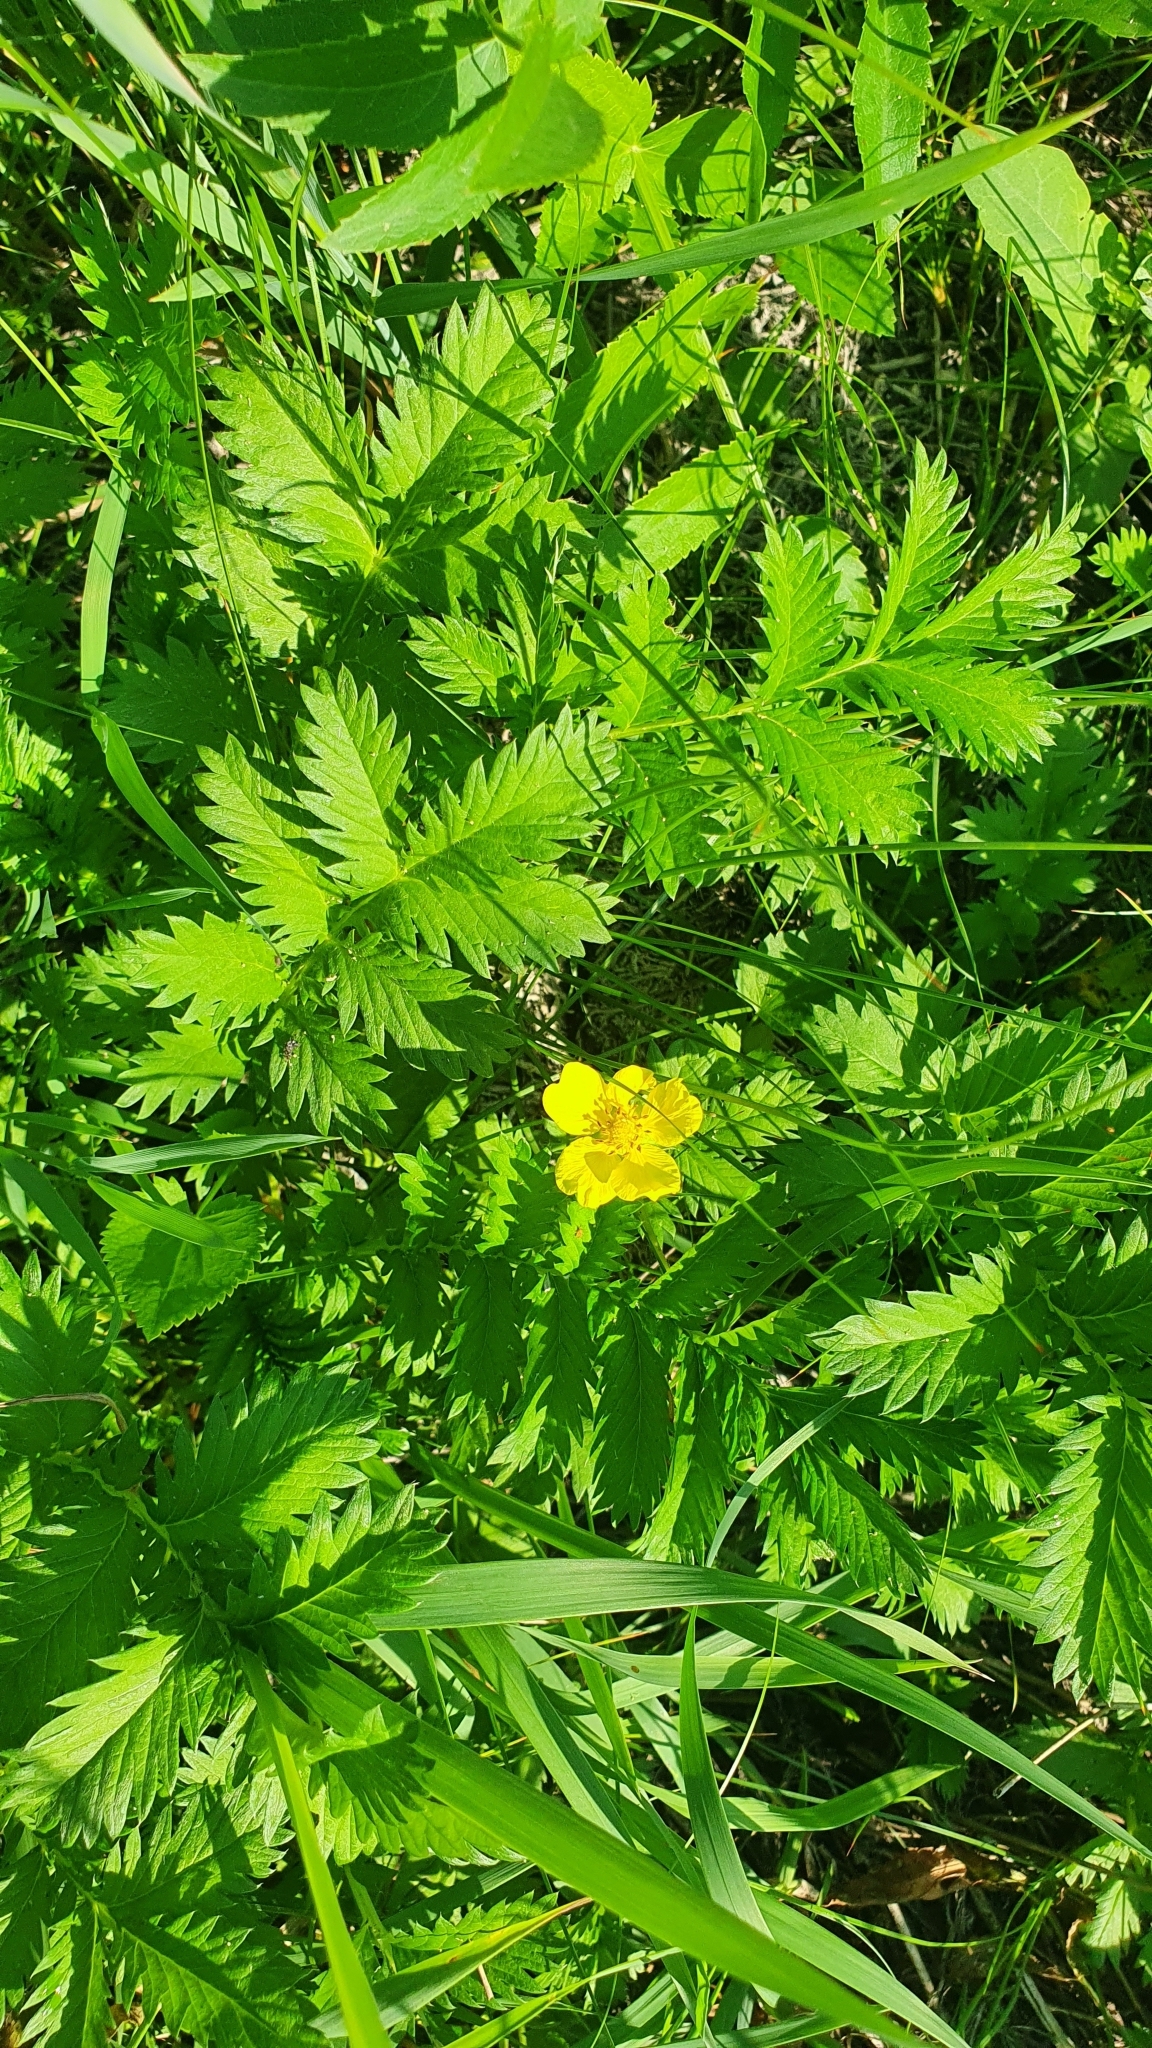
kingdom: Plantae
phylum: Tracheophyta
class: Magnoliopsida
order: Rosales
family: Rosaceae
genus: Argentina
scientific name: Argentina anserina
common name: Common silverweed
